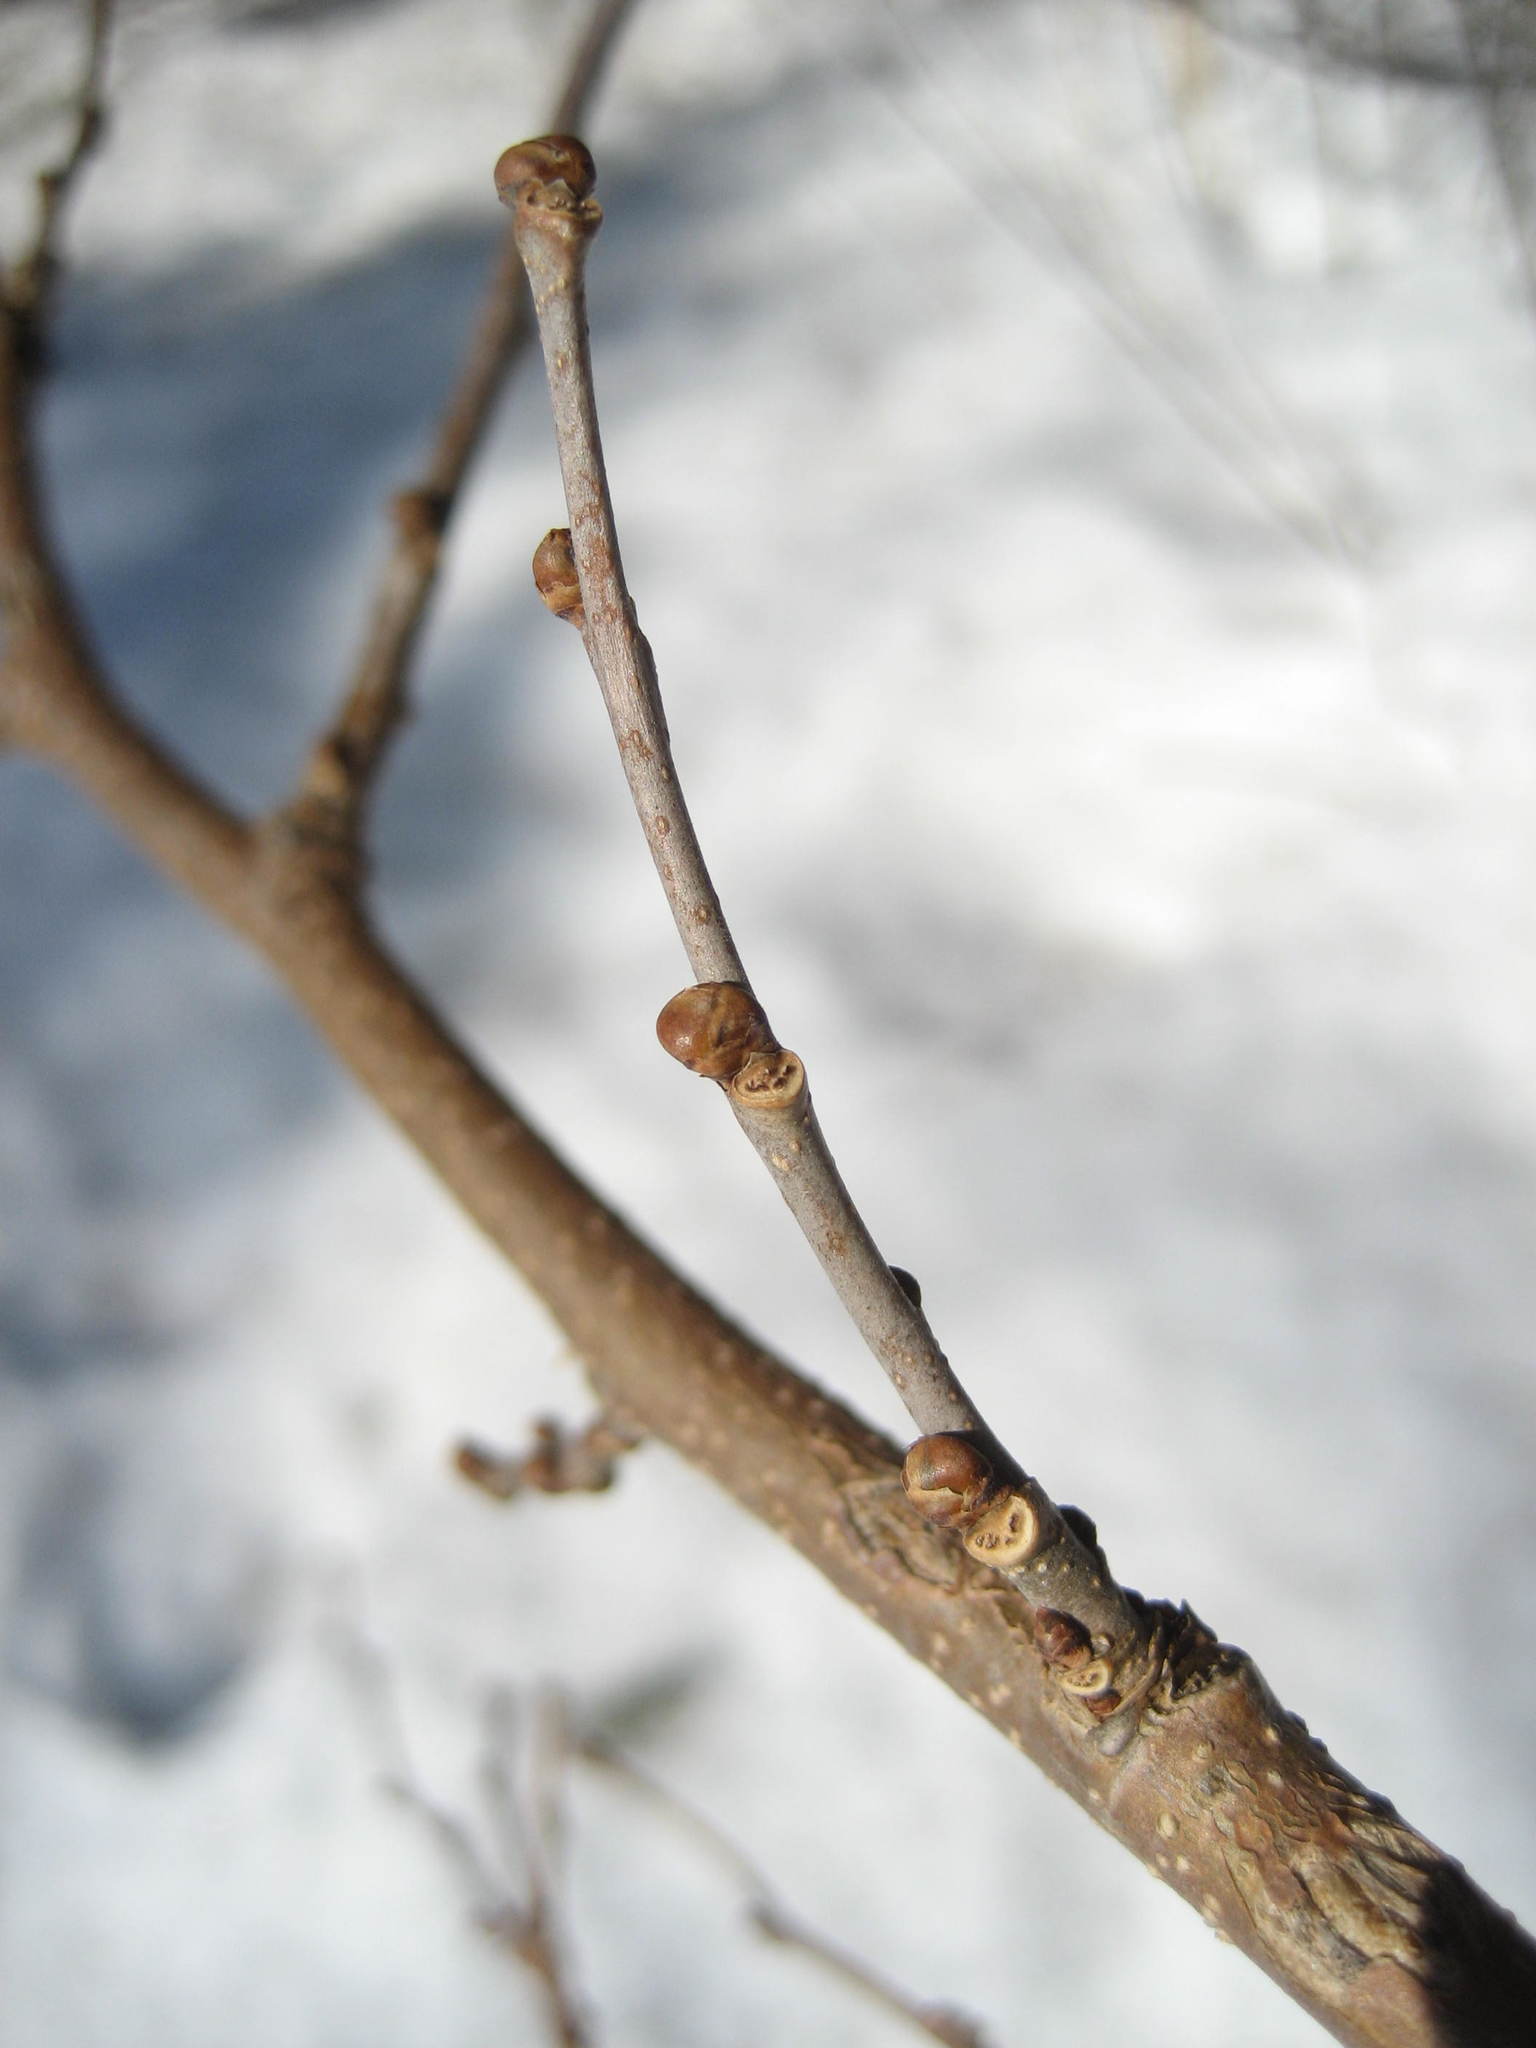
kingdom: Plantae
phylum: Tracheophyta
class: Magnoliopsida
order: Rosales
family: Moraceae
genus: Morus
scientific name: Morus alba
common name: White mulberry
